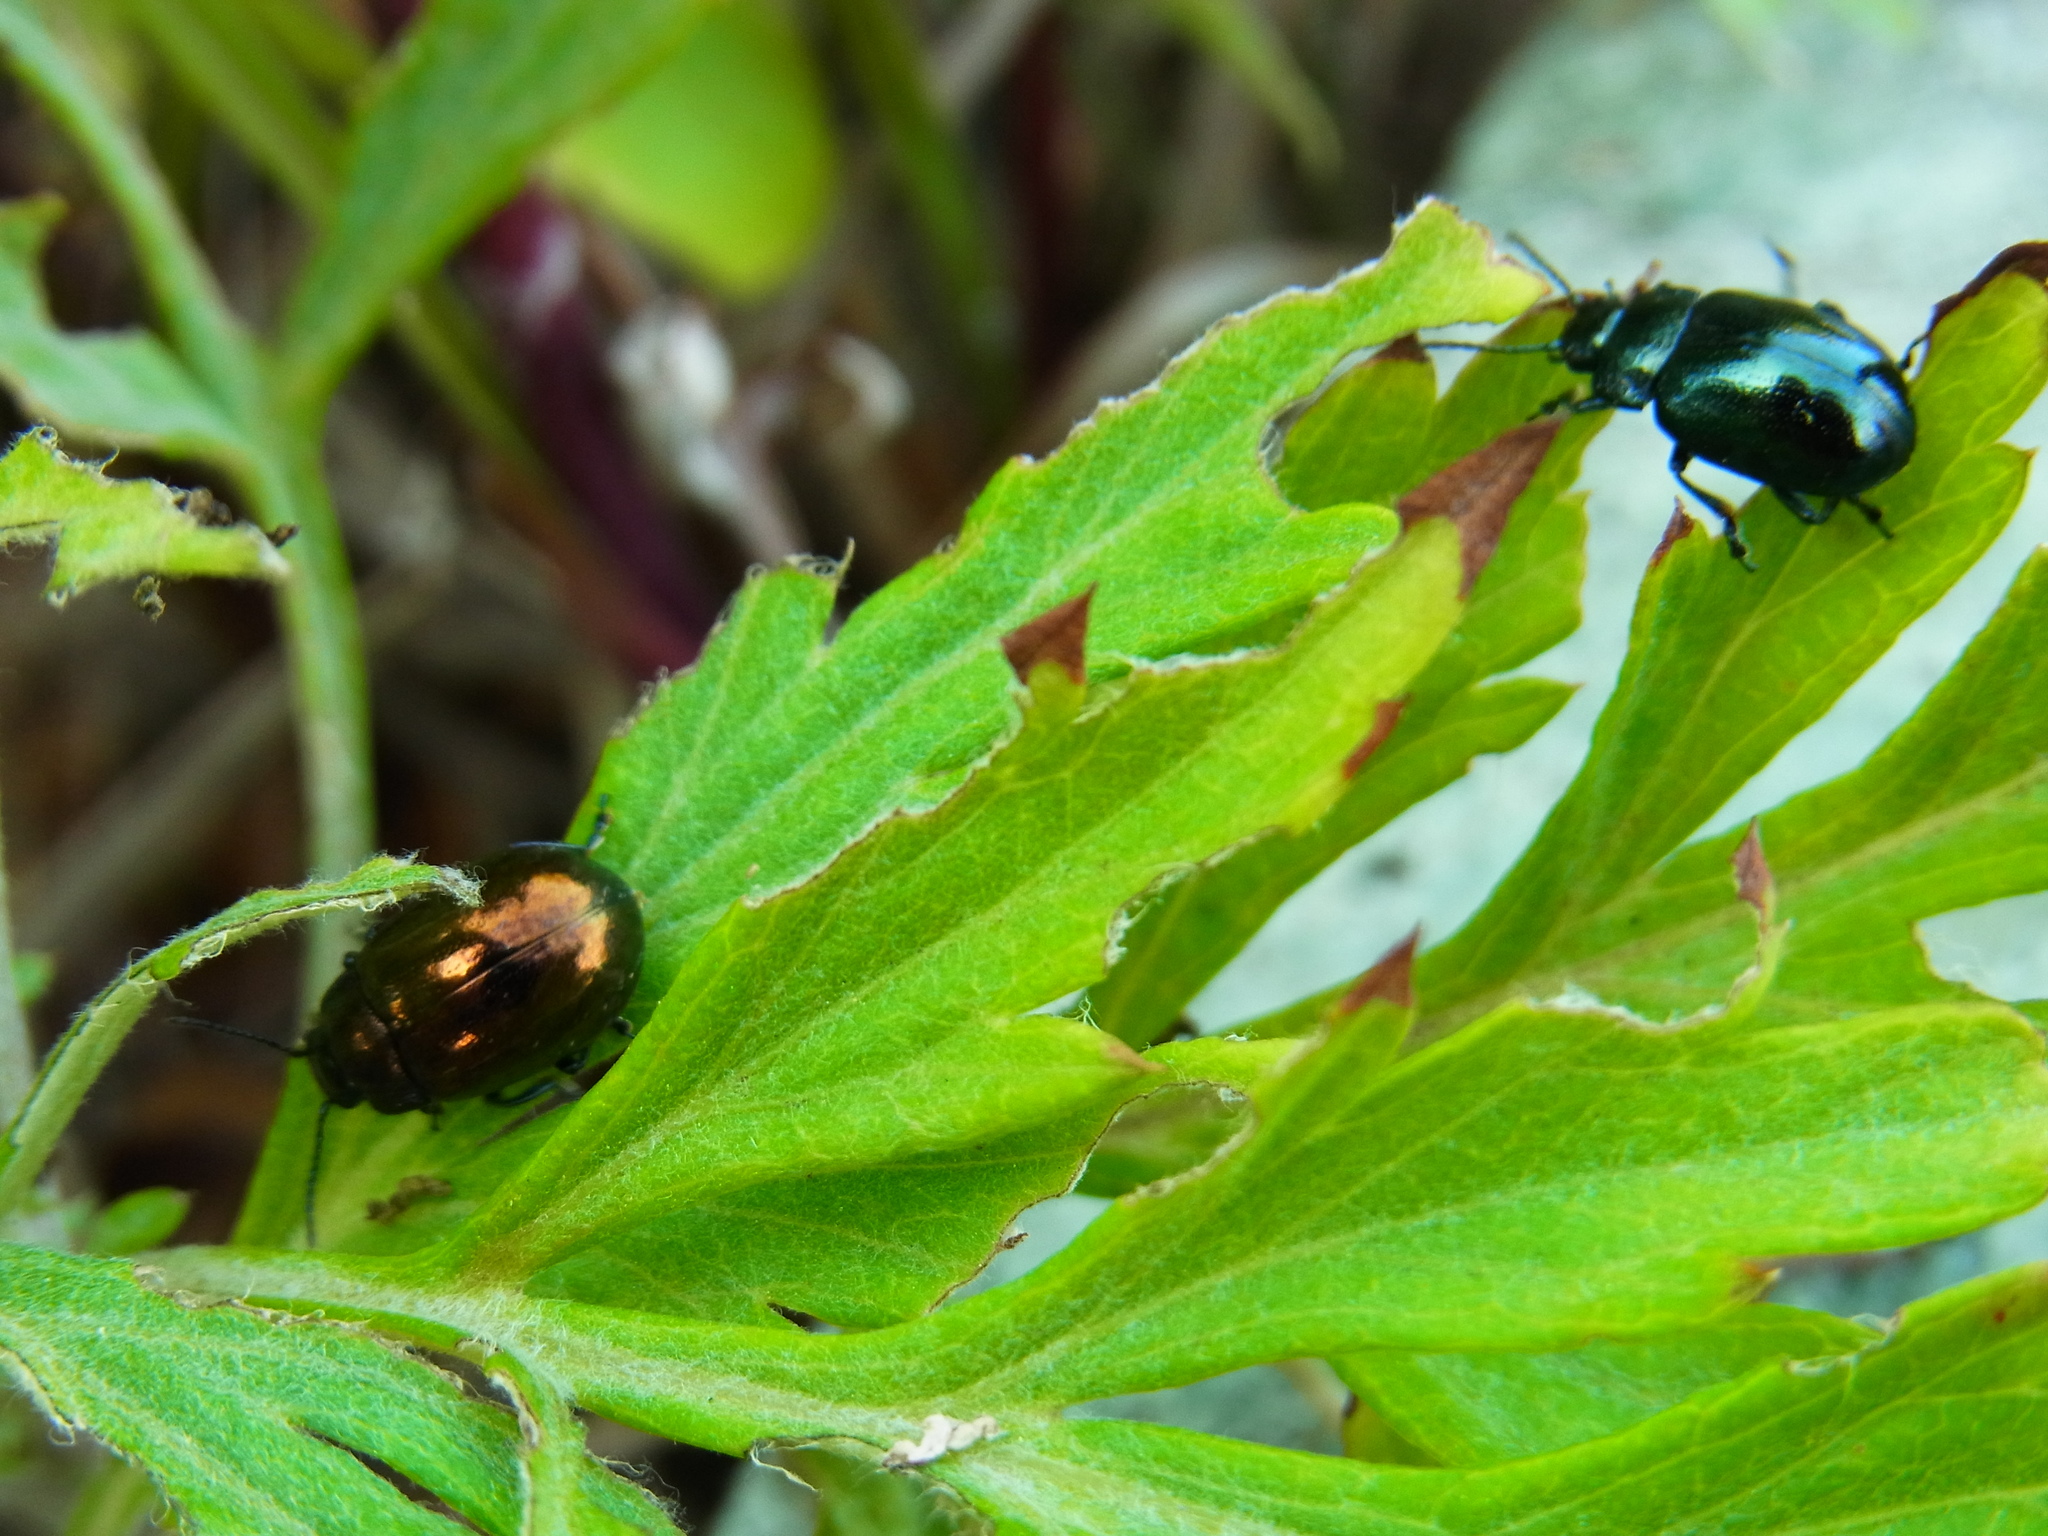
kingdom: Animalia
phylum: Arthropoda
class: Insecta
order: Coleoptera
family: Chrysomelidae
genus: Chrysolina
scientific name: Chrysolina aurichalcea
